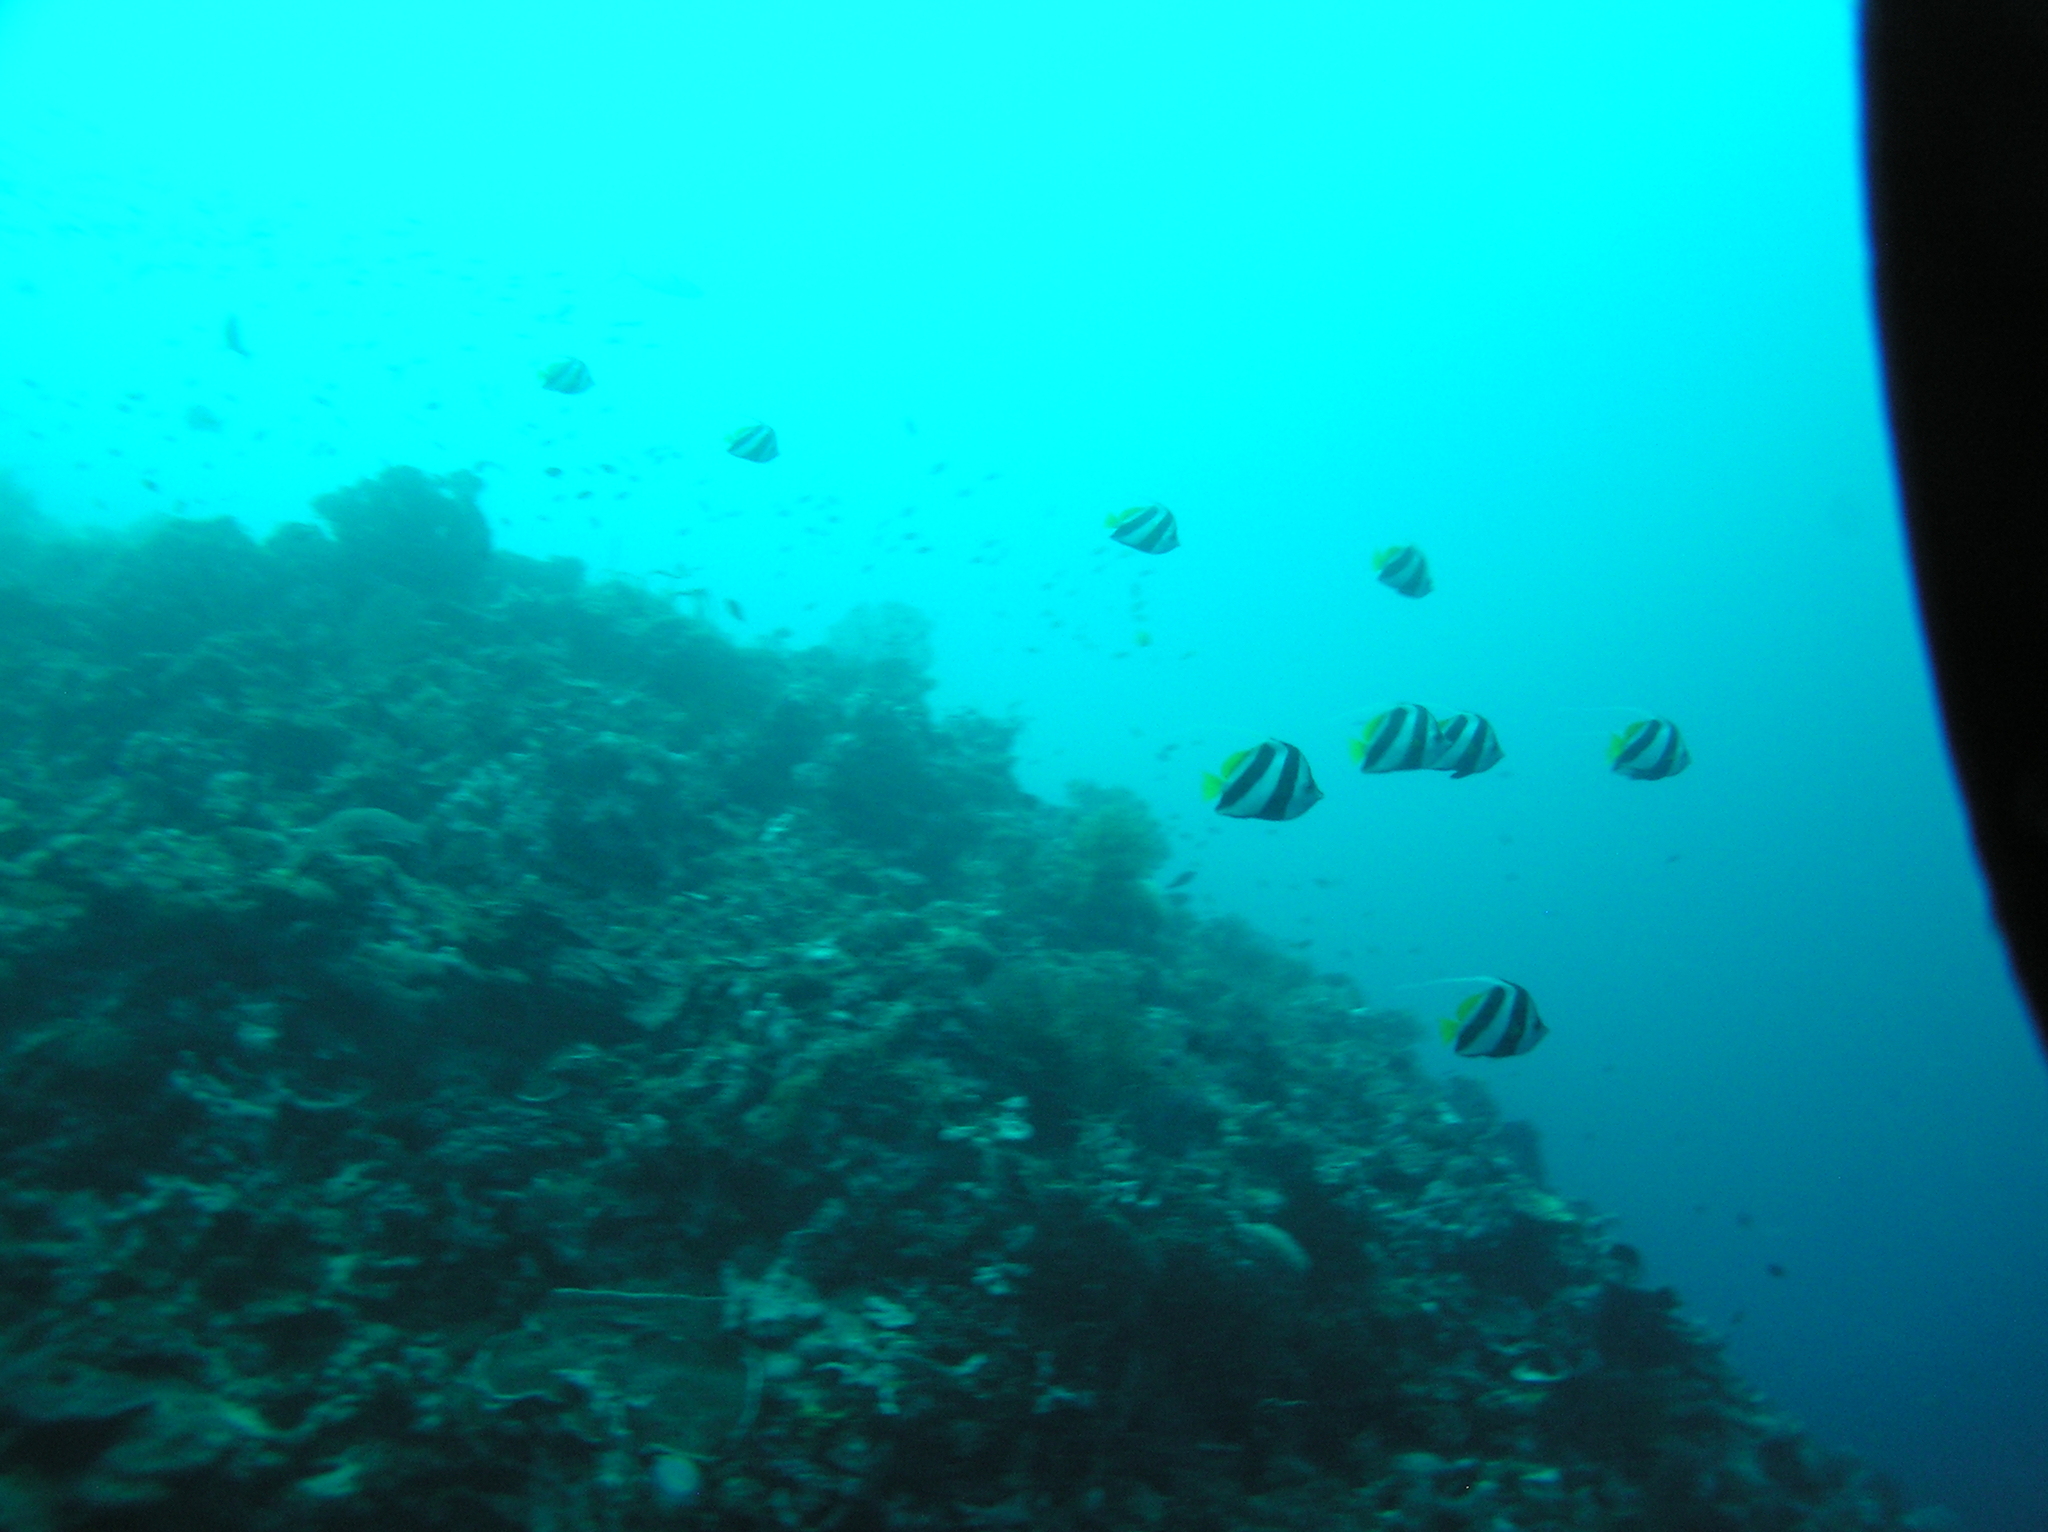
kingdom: Animalia
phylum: Chordata
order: Perciformes
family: Chaetodontidae
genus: Heniochus
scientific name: Heniochus diphreutes
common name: Pennantfish
